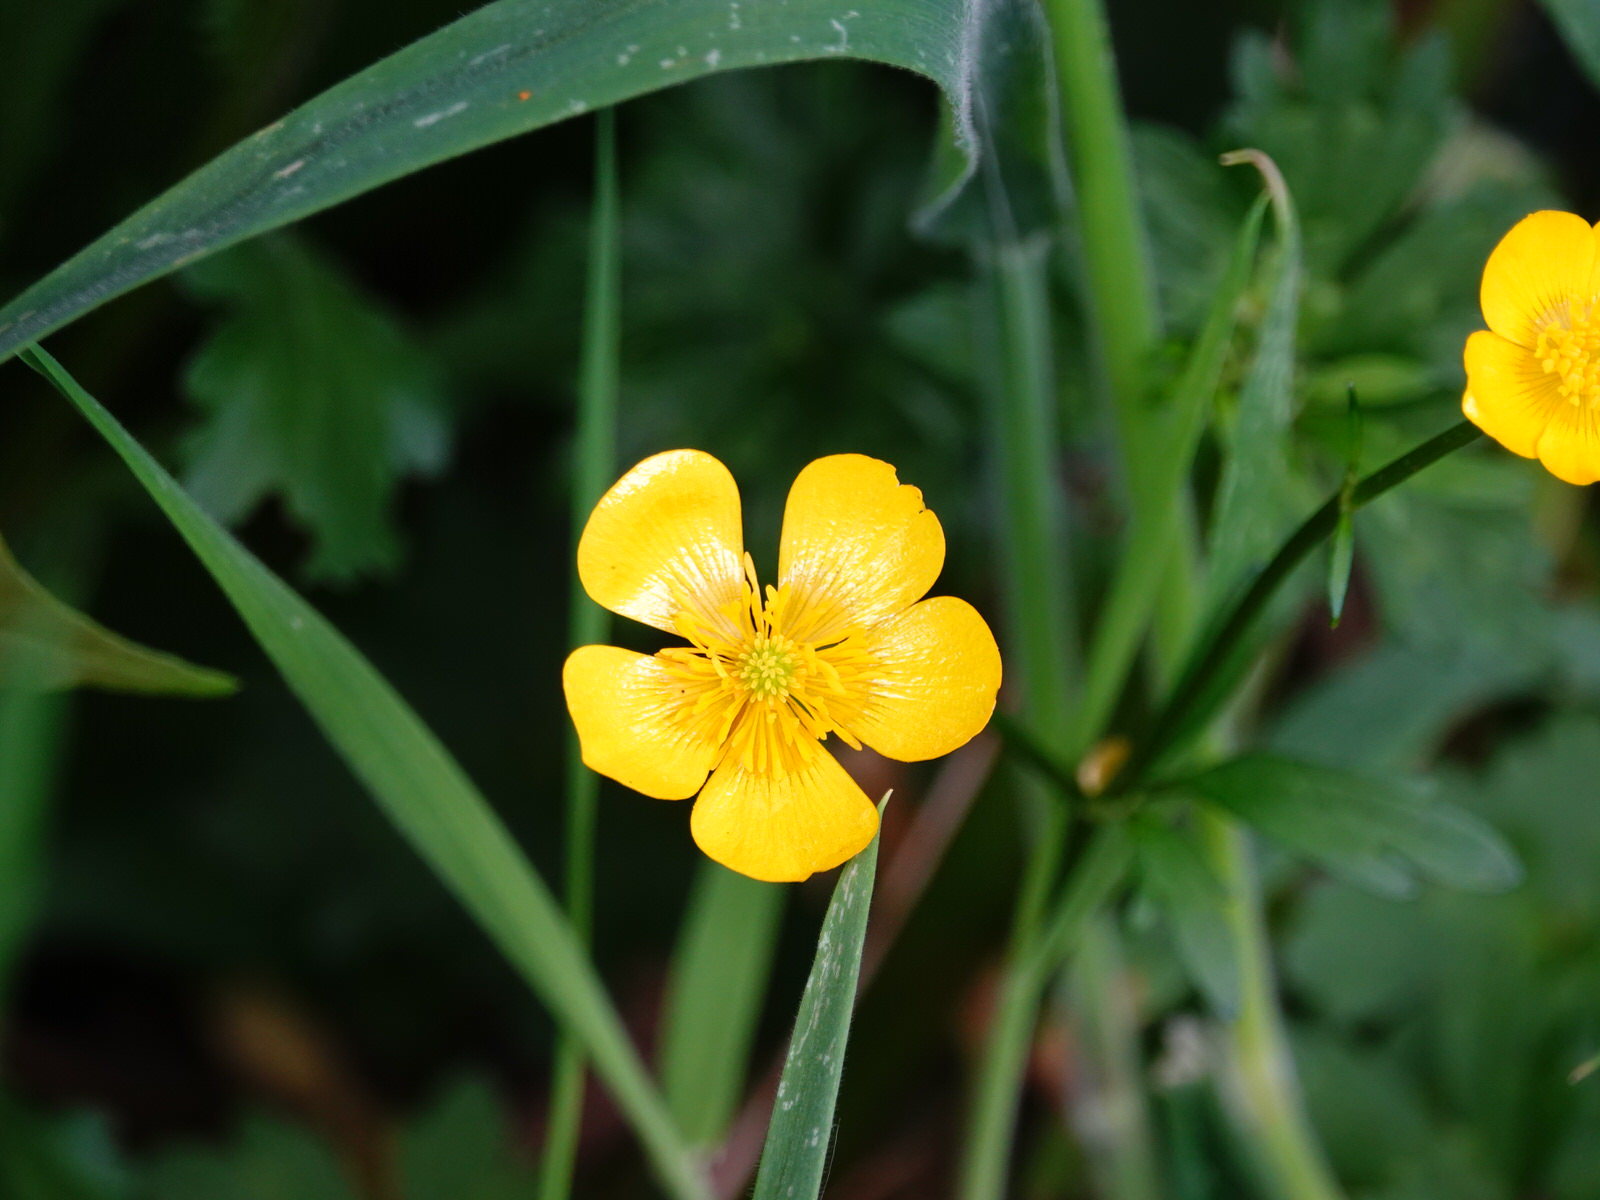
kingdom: Plantae
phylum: Tracheophyta
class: Magnoliopsida
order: Ranunculales
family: Ranunculaceae
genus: Ranunculus
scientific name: Ranunculus repens
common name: Creeping buttercup
